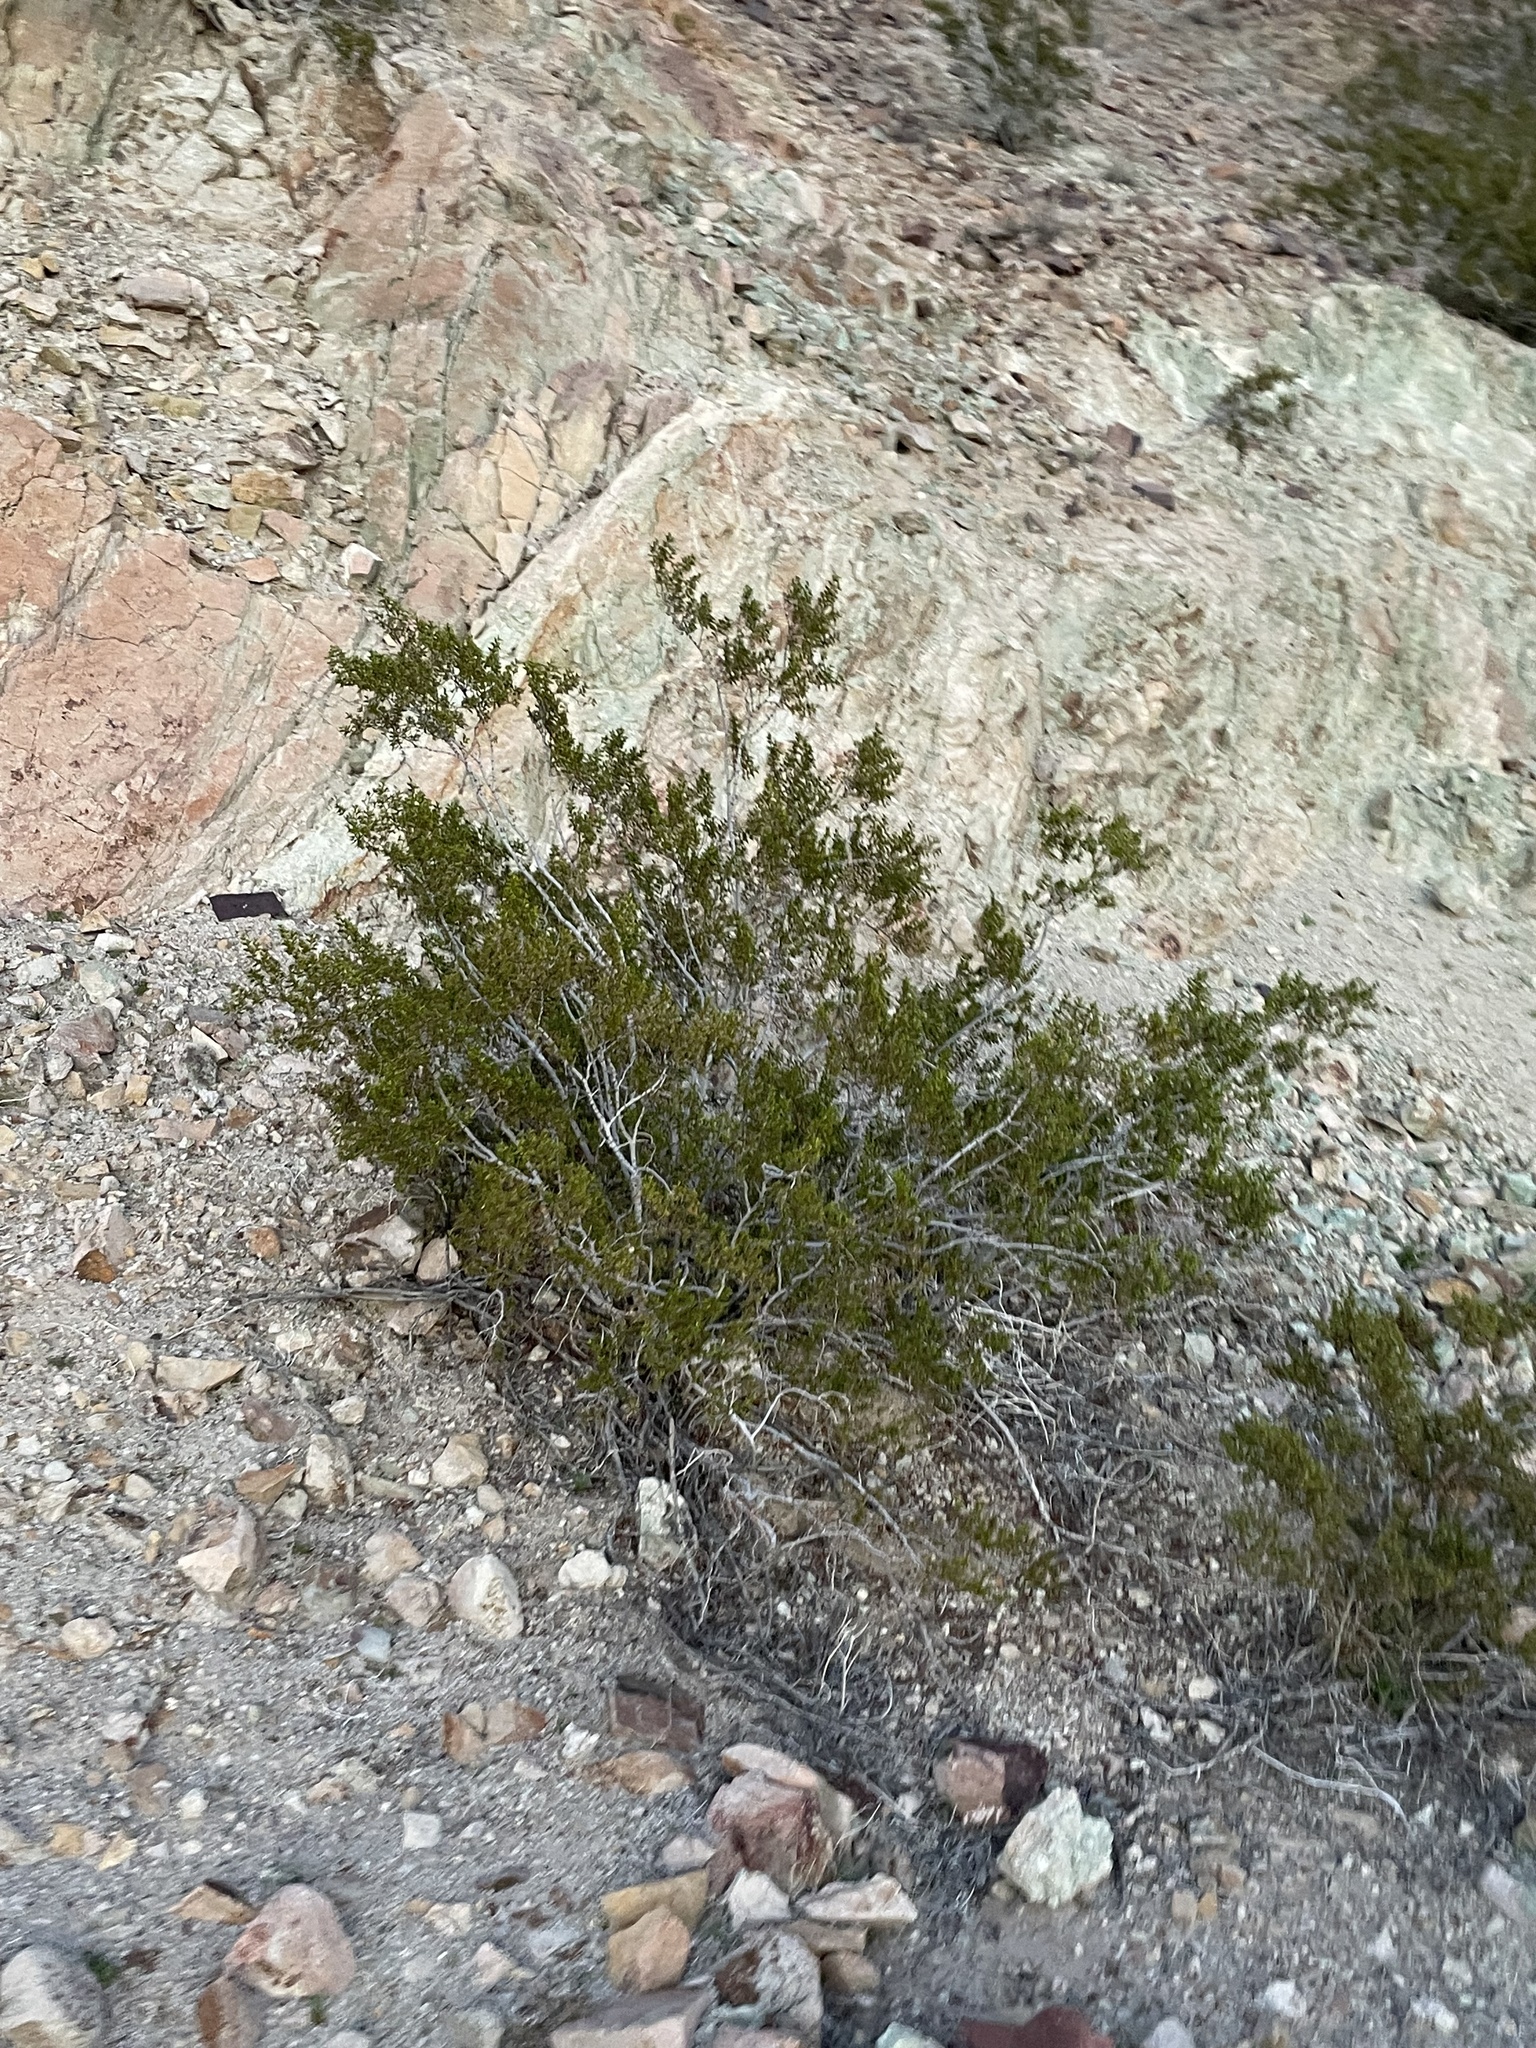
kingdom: Plantae
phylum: Tracheophyta
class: Magnoliopsida
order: Zygophyllales
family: Zygophyllaceae
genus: Larrea
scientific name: Larrea tridentata
